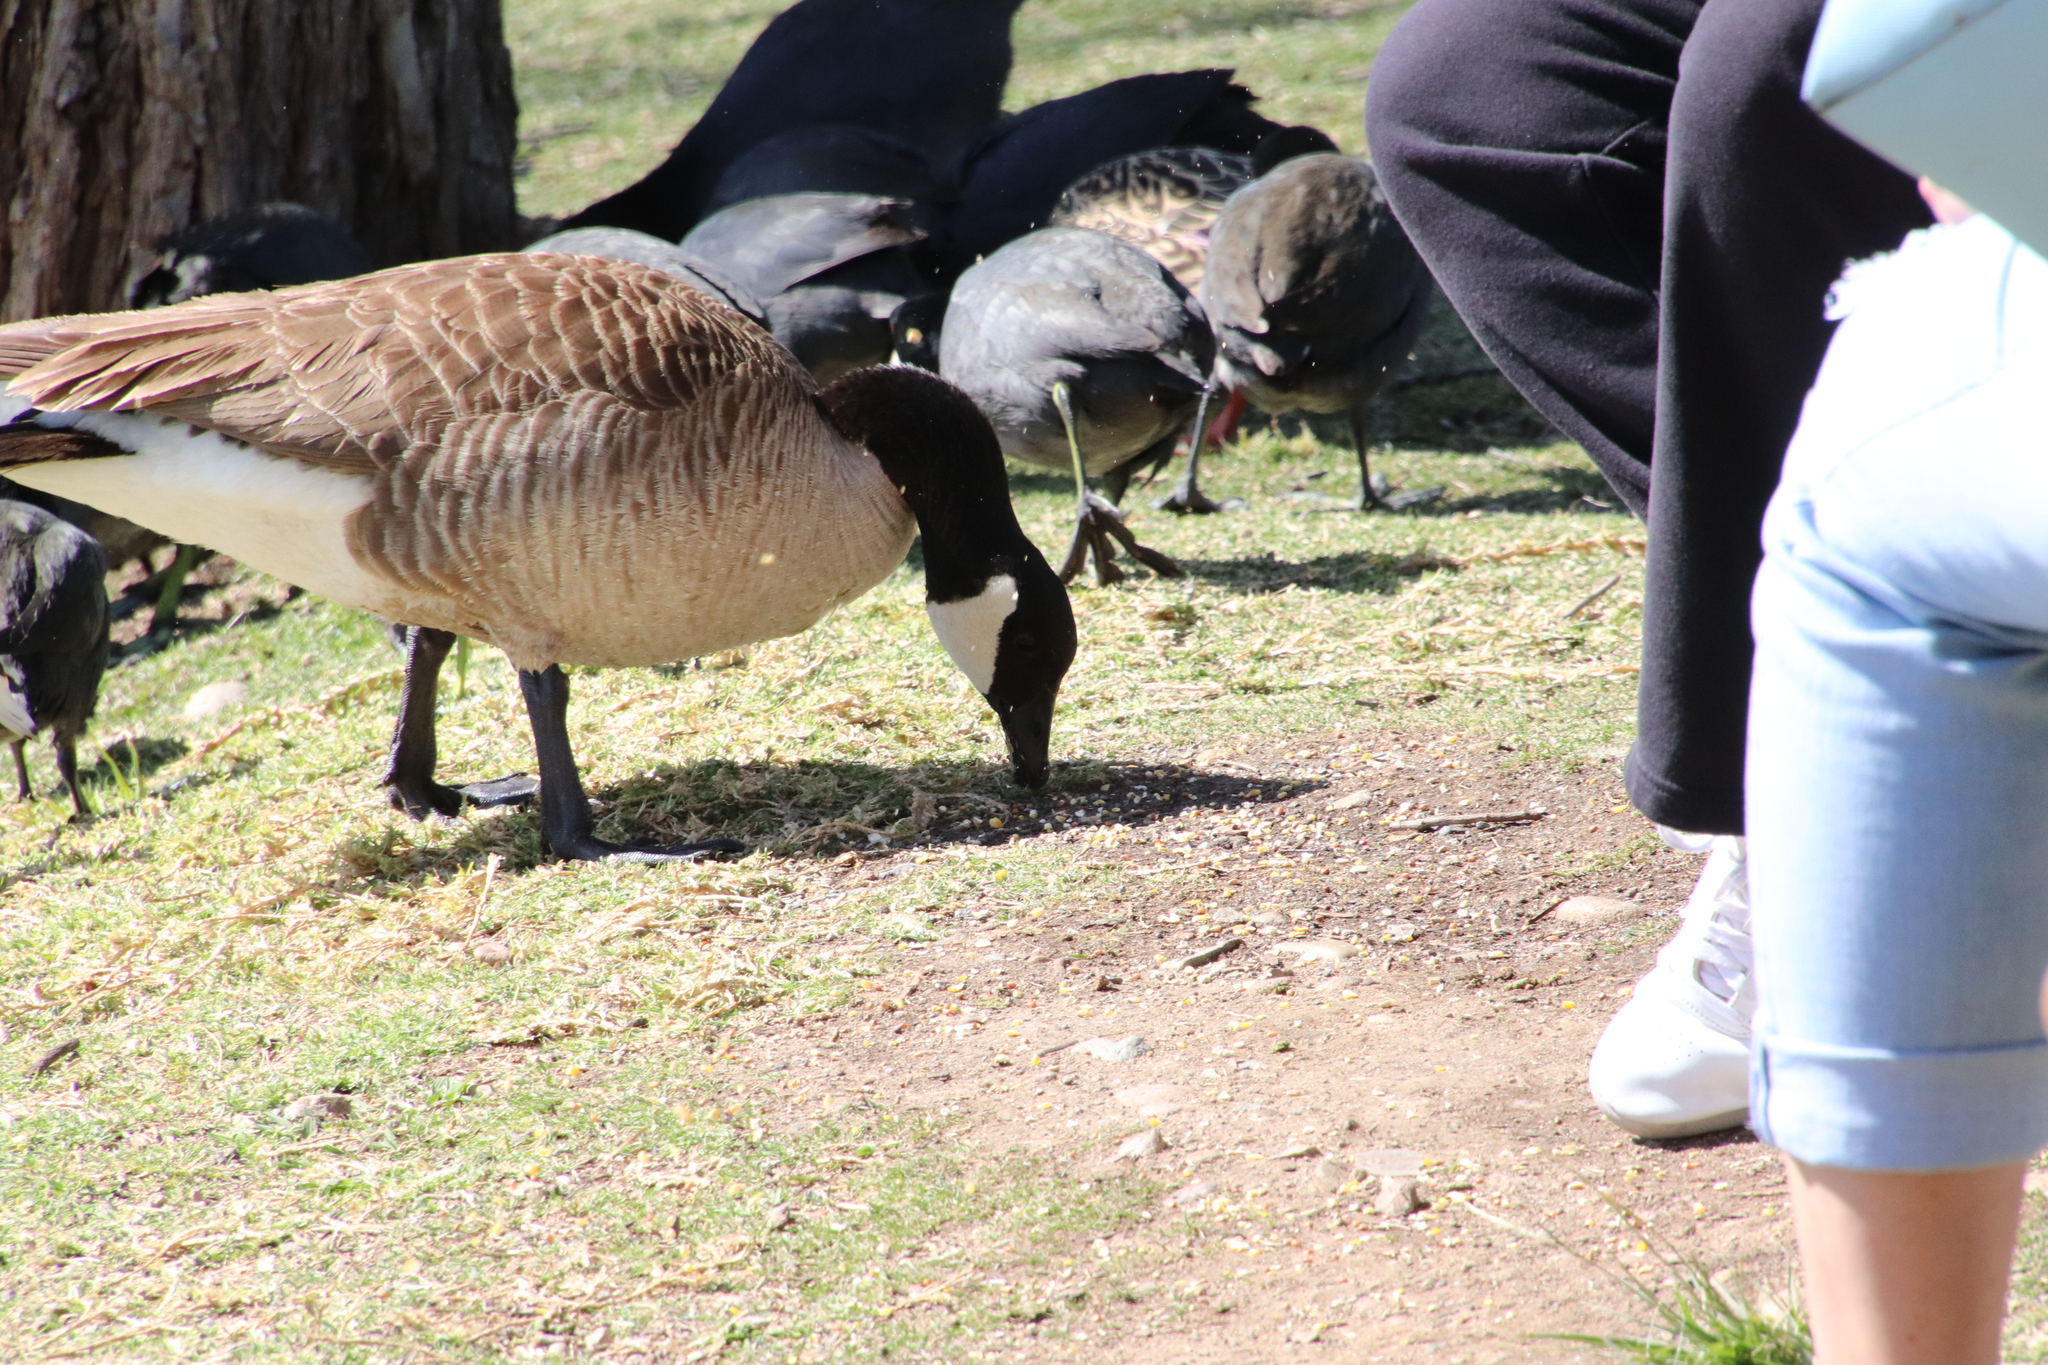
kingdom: Animalia
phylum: Chordata
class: Aves
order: Anseriformes
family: Anatidae
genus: Branta
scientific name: Branta canadensis
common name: Canada goose
